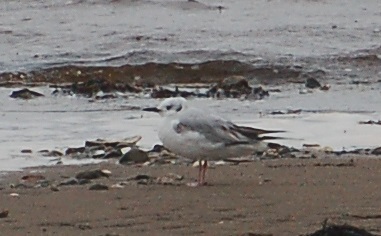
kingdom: Animalia
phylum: Chordata
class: Aves
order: Charadriiformes
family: Laridae
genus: Chroicocephalus
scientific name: Chroicocephalus philadelphia
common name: Bonaparte's gull
